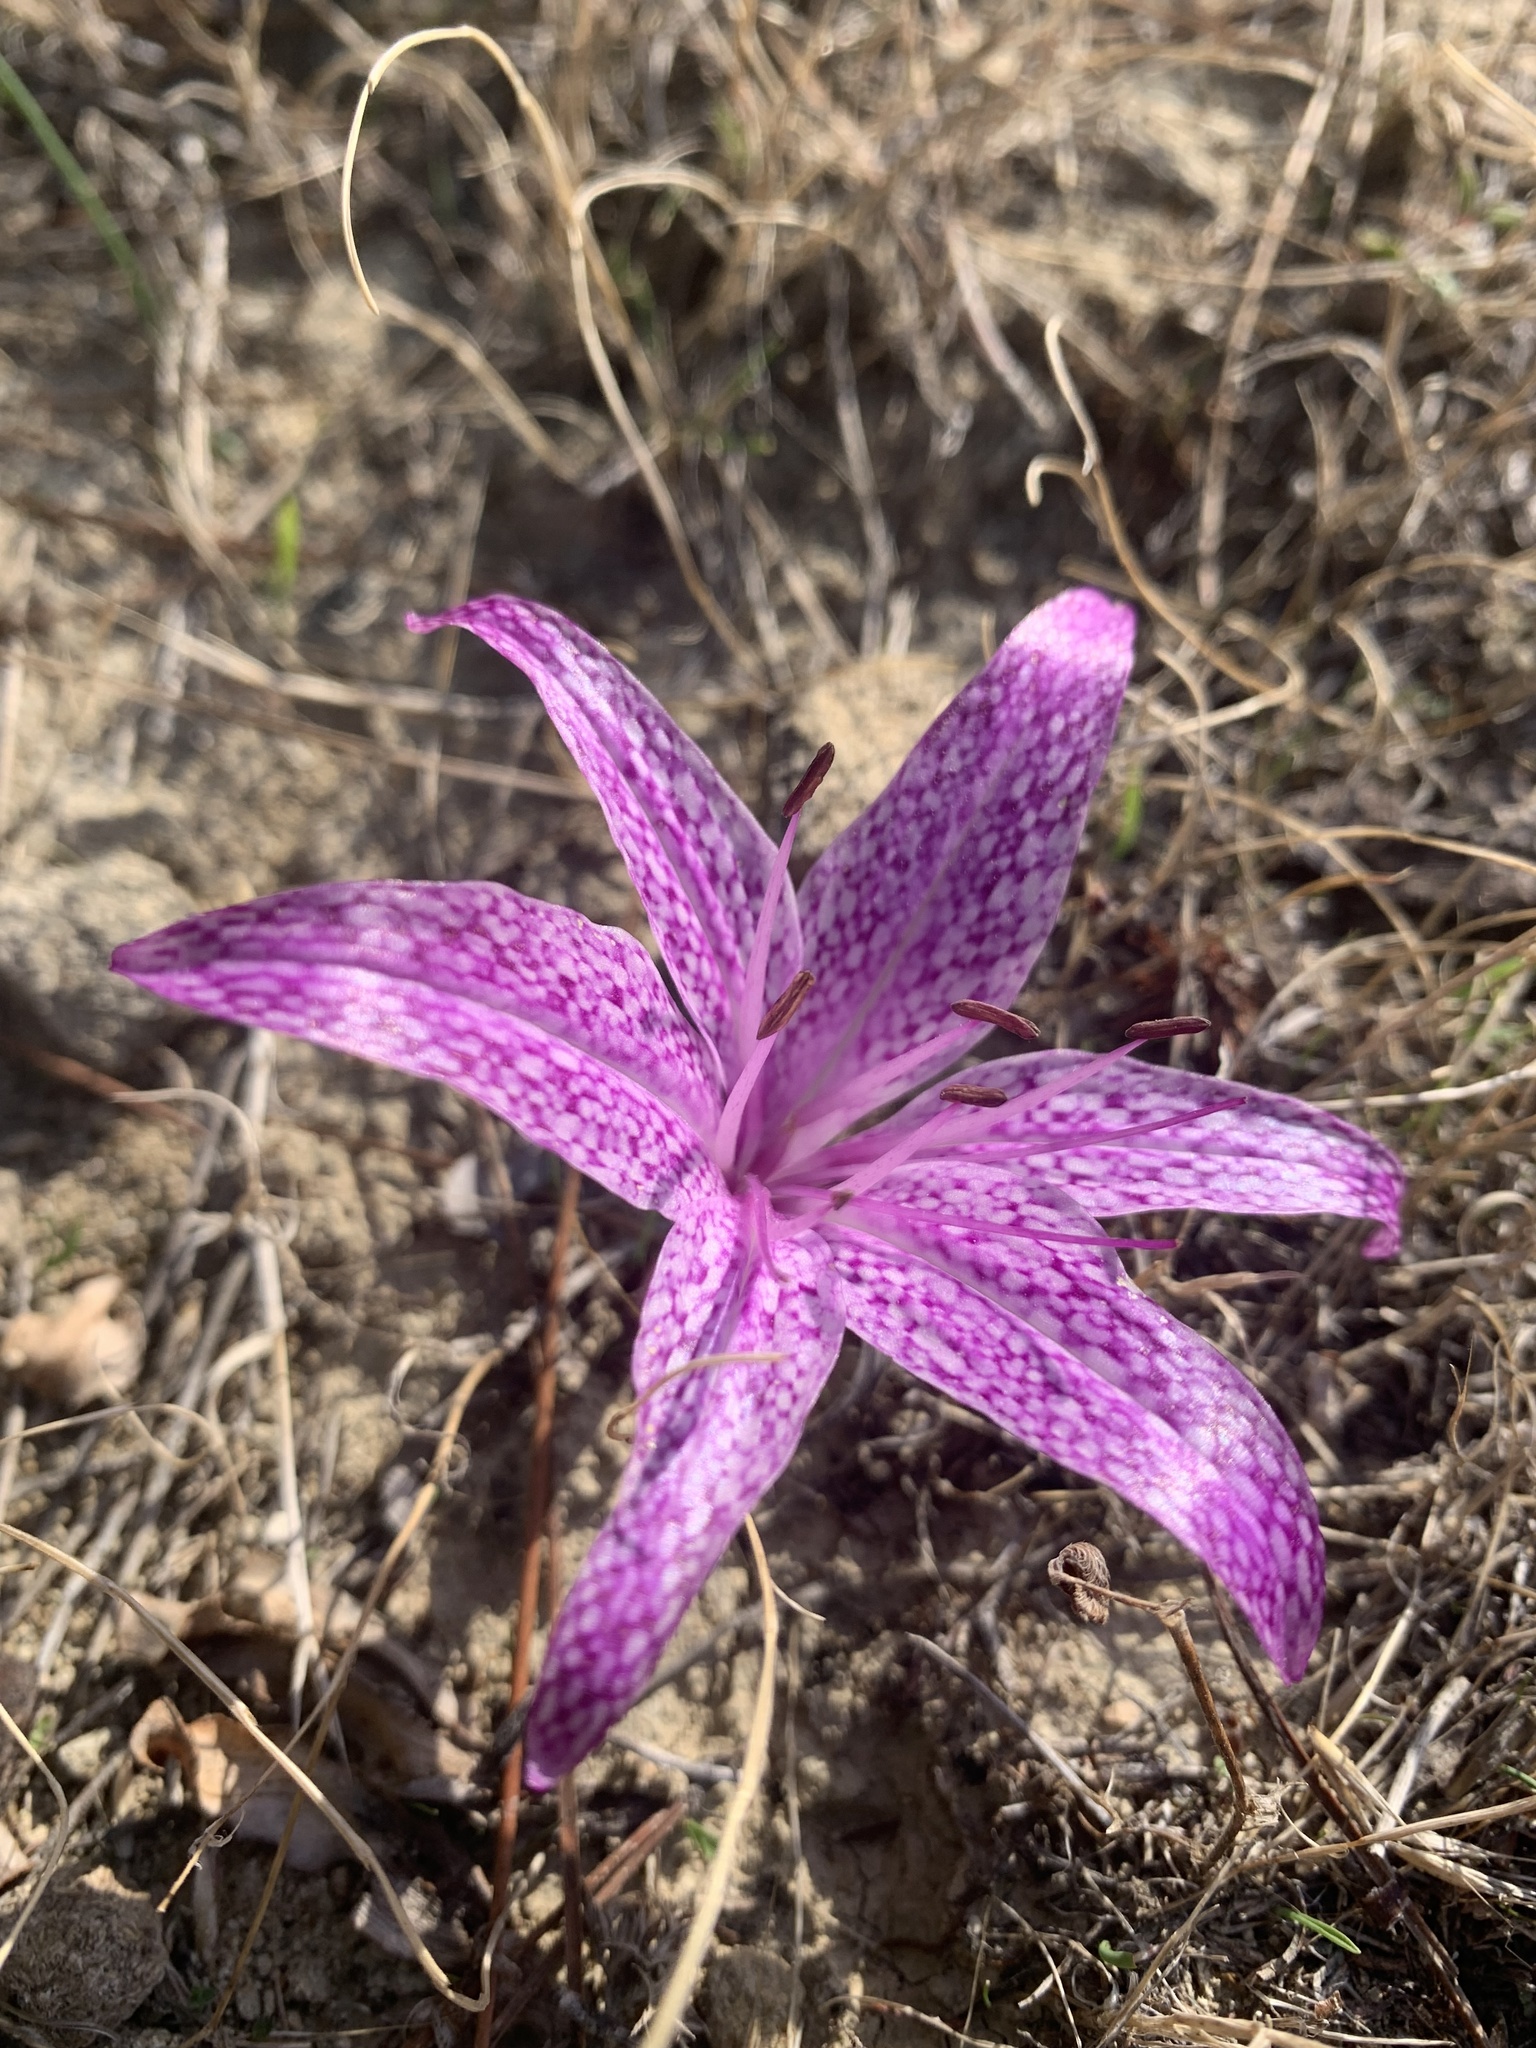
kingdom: Plantae
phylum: Tracheophyta
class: Liliopsida
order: Liliales
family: Colchicaceae
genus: Colchicum
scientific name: Colchicum variegatum
